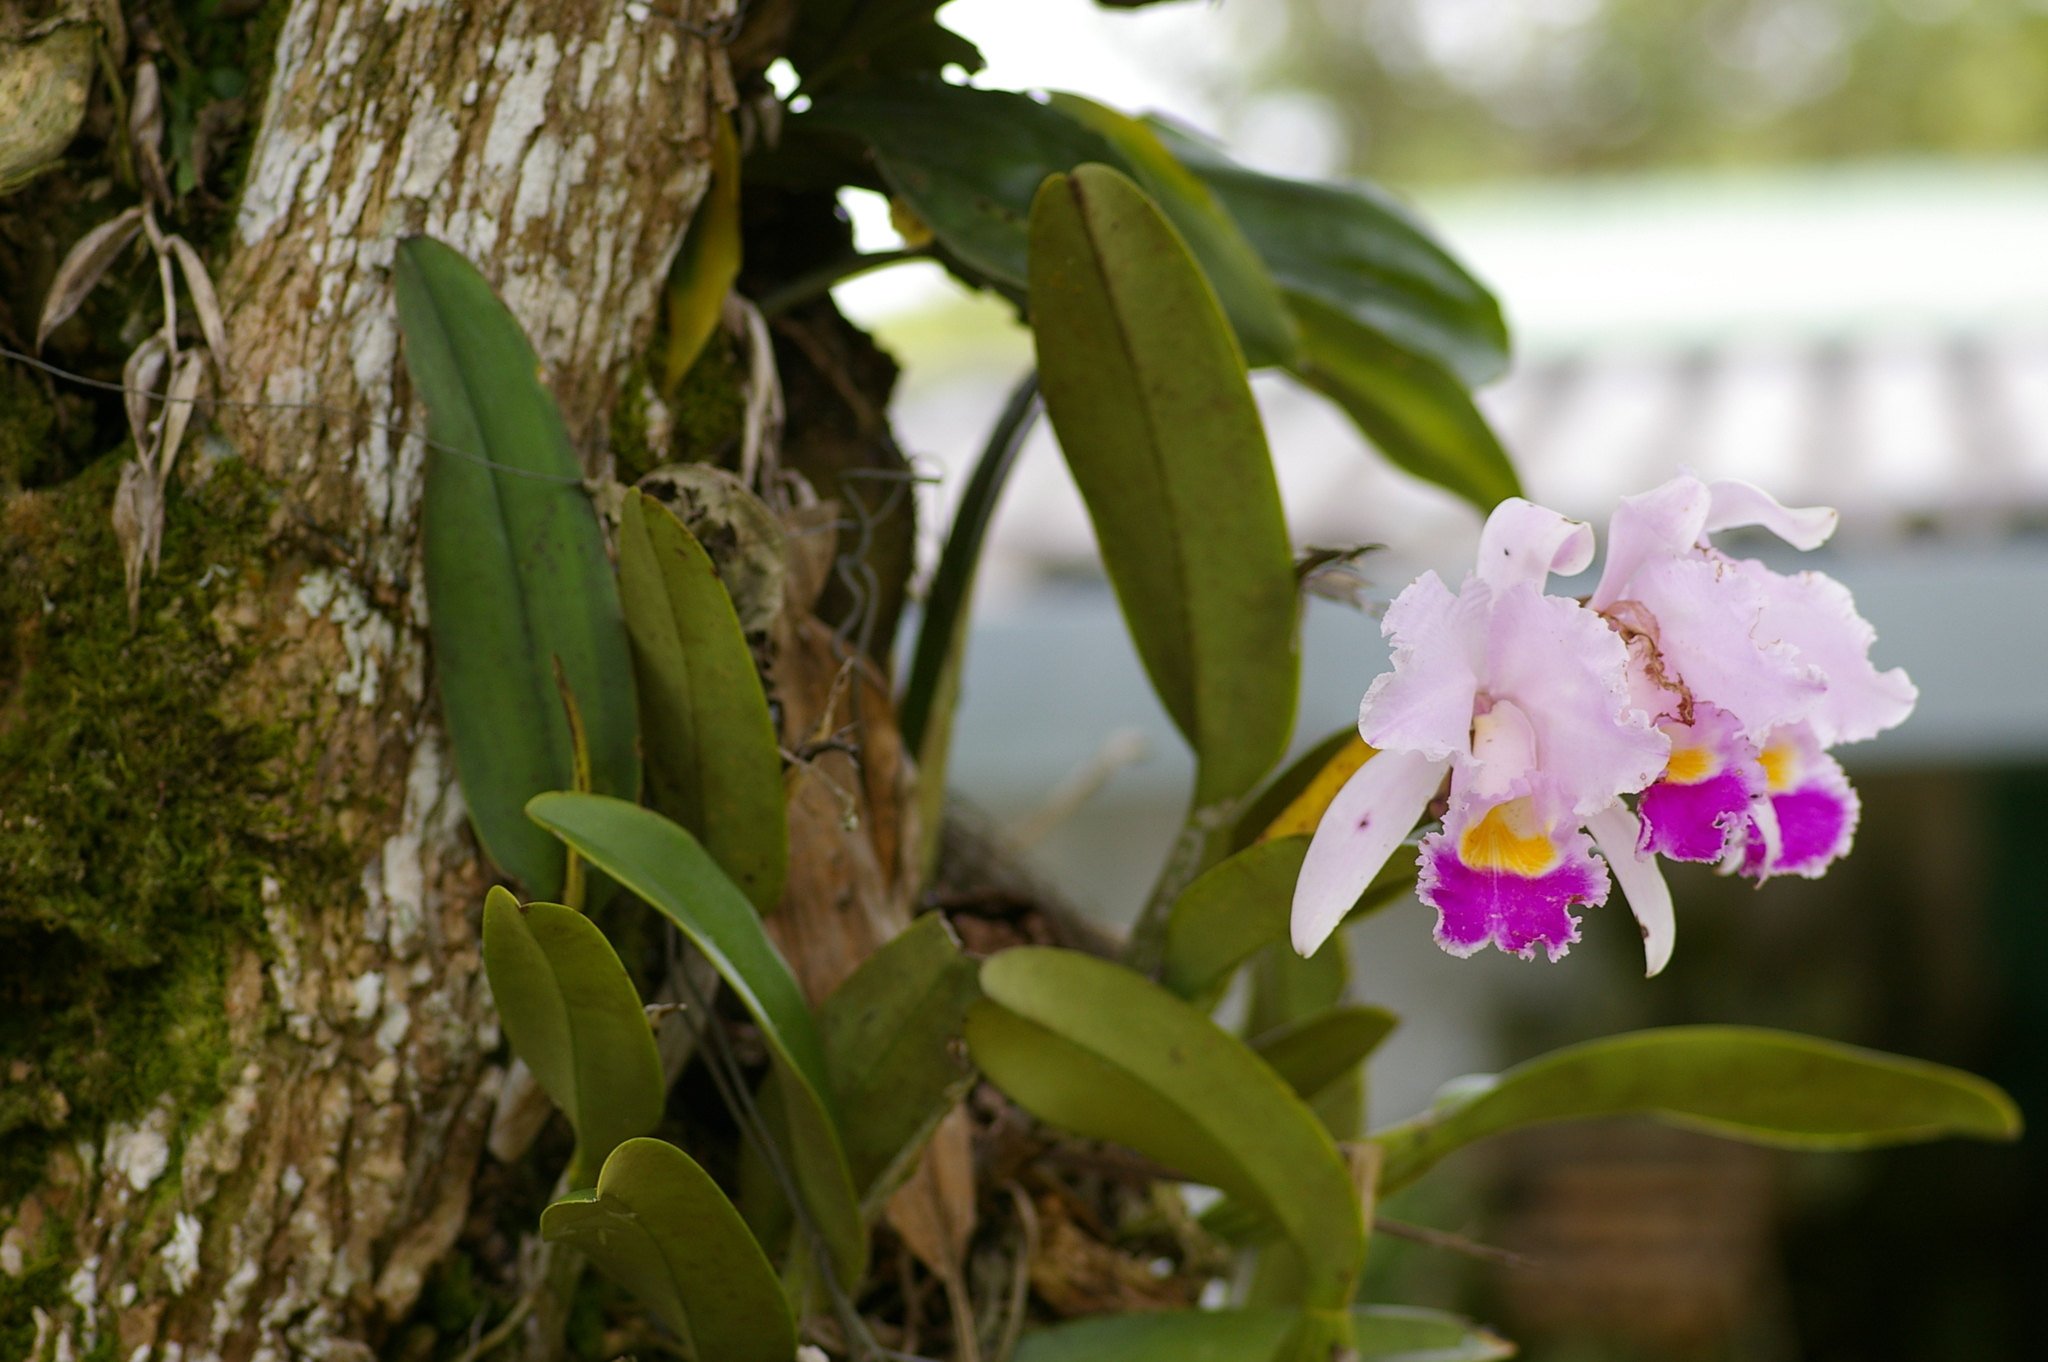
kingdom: Plantae
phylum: Tracheophyta
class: Liliopsida
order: Asparagales
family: Orchidaceae
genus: Cattleya
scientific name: Cattleya trianae
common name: Christmas orchid
